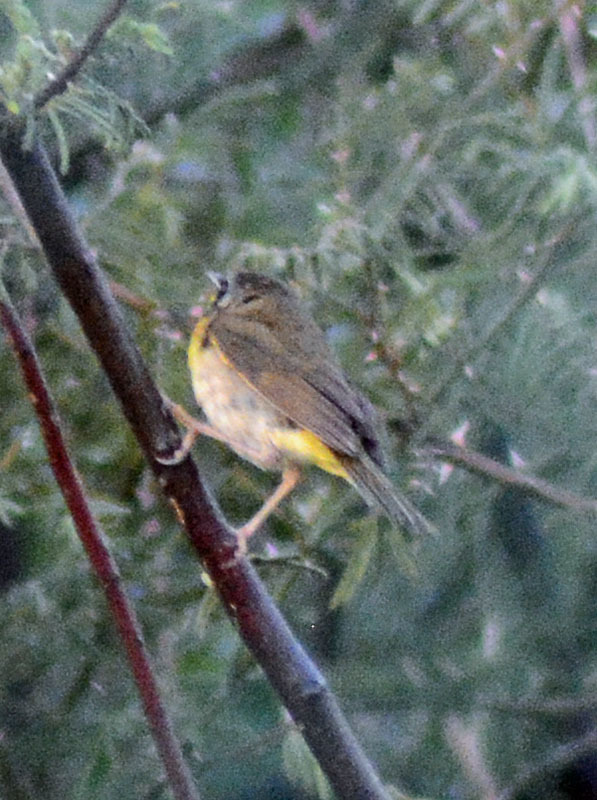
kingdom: Animalia
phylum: Chordata
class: Aves
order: Passeriformes
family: Parulidae
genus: Geothlypis
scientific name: Geothlypis trichas
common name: Common yellowthroat
